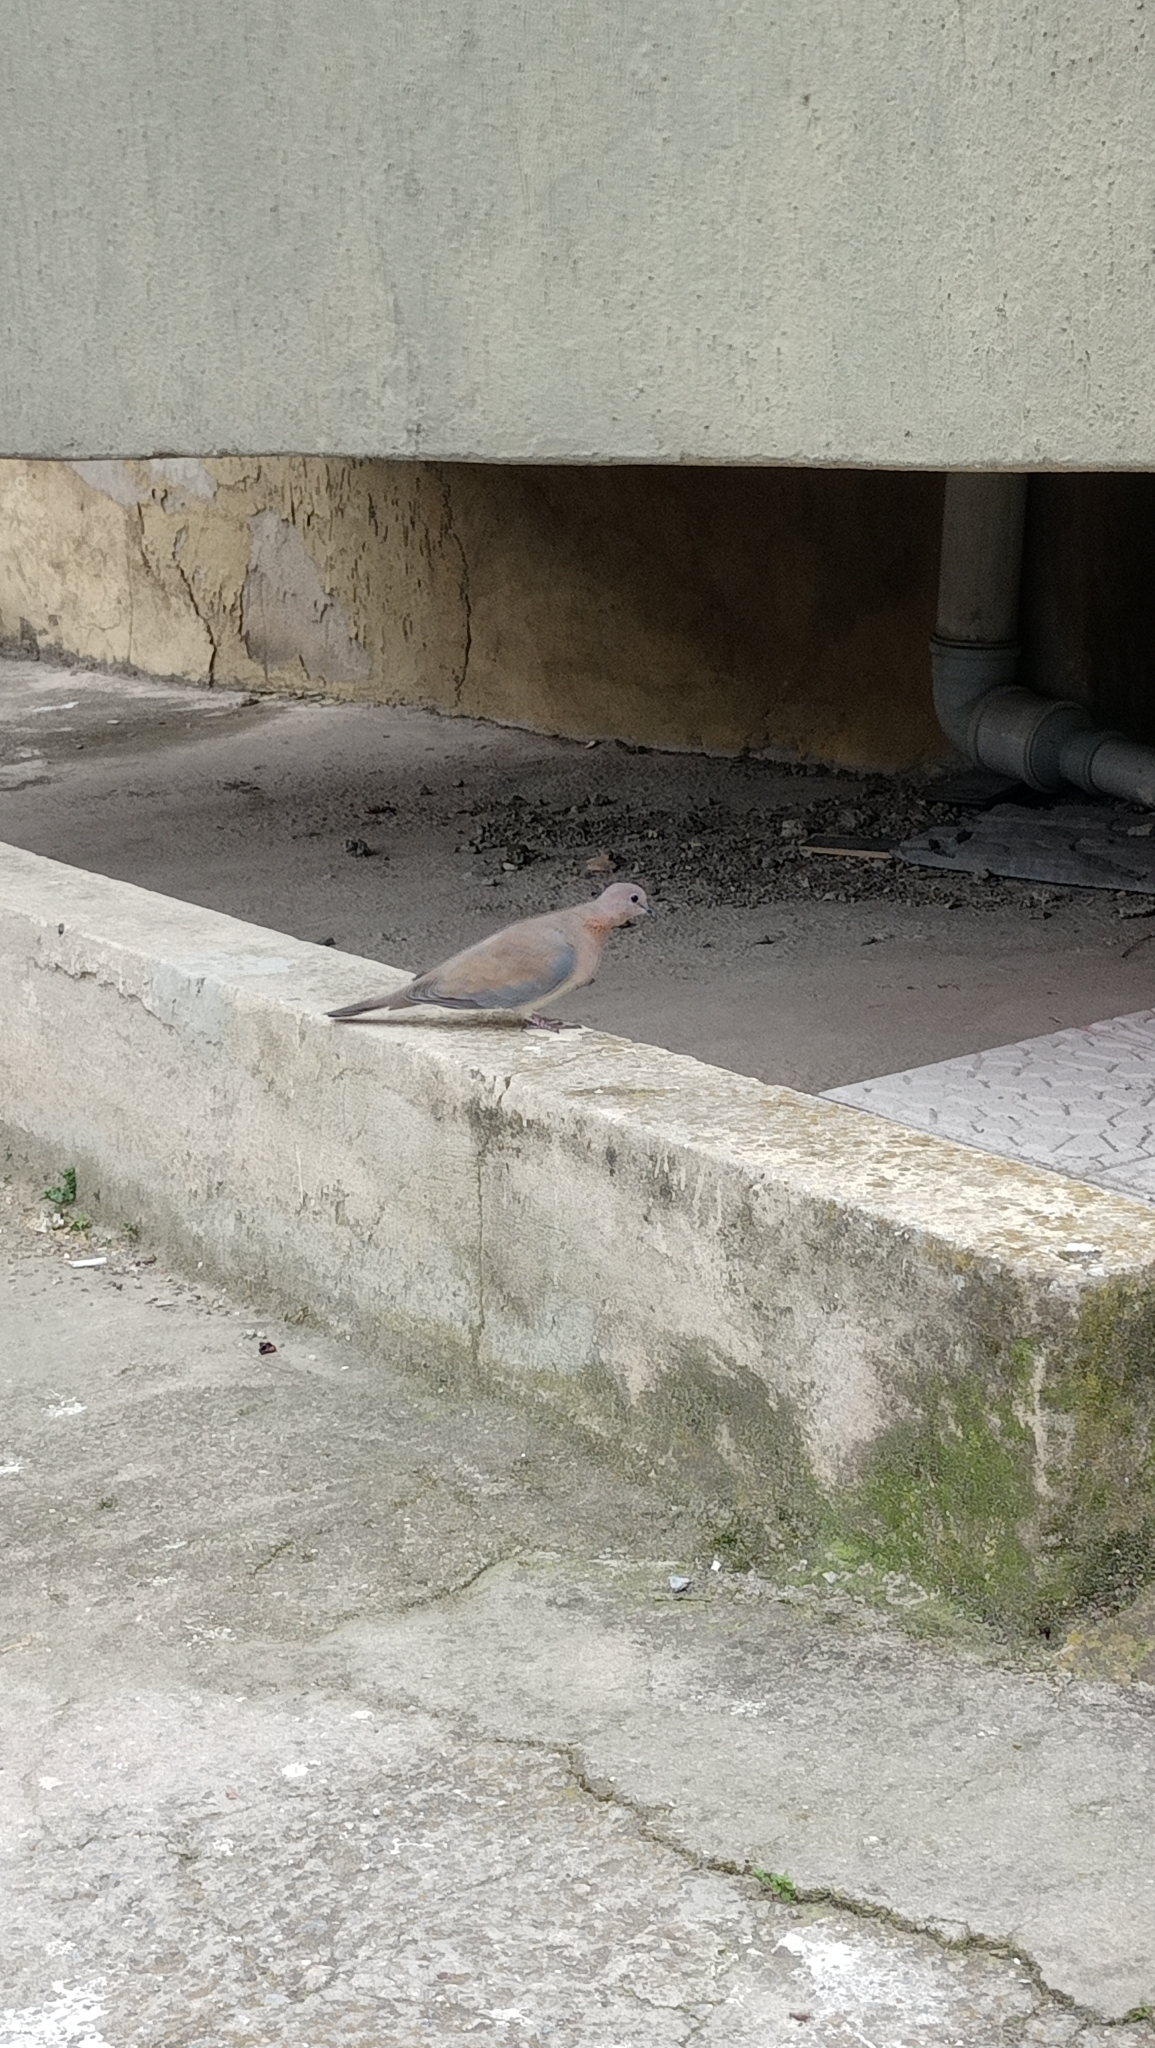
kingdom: Animalia
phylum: Chordata
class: Aves
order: Columbiformes
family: Columbidae
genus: Spilopelia
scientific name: Spilopelia senegalensis
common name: Laughing dove
